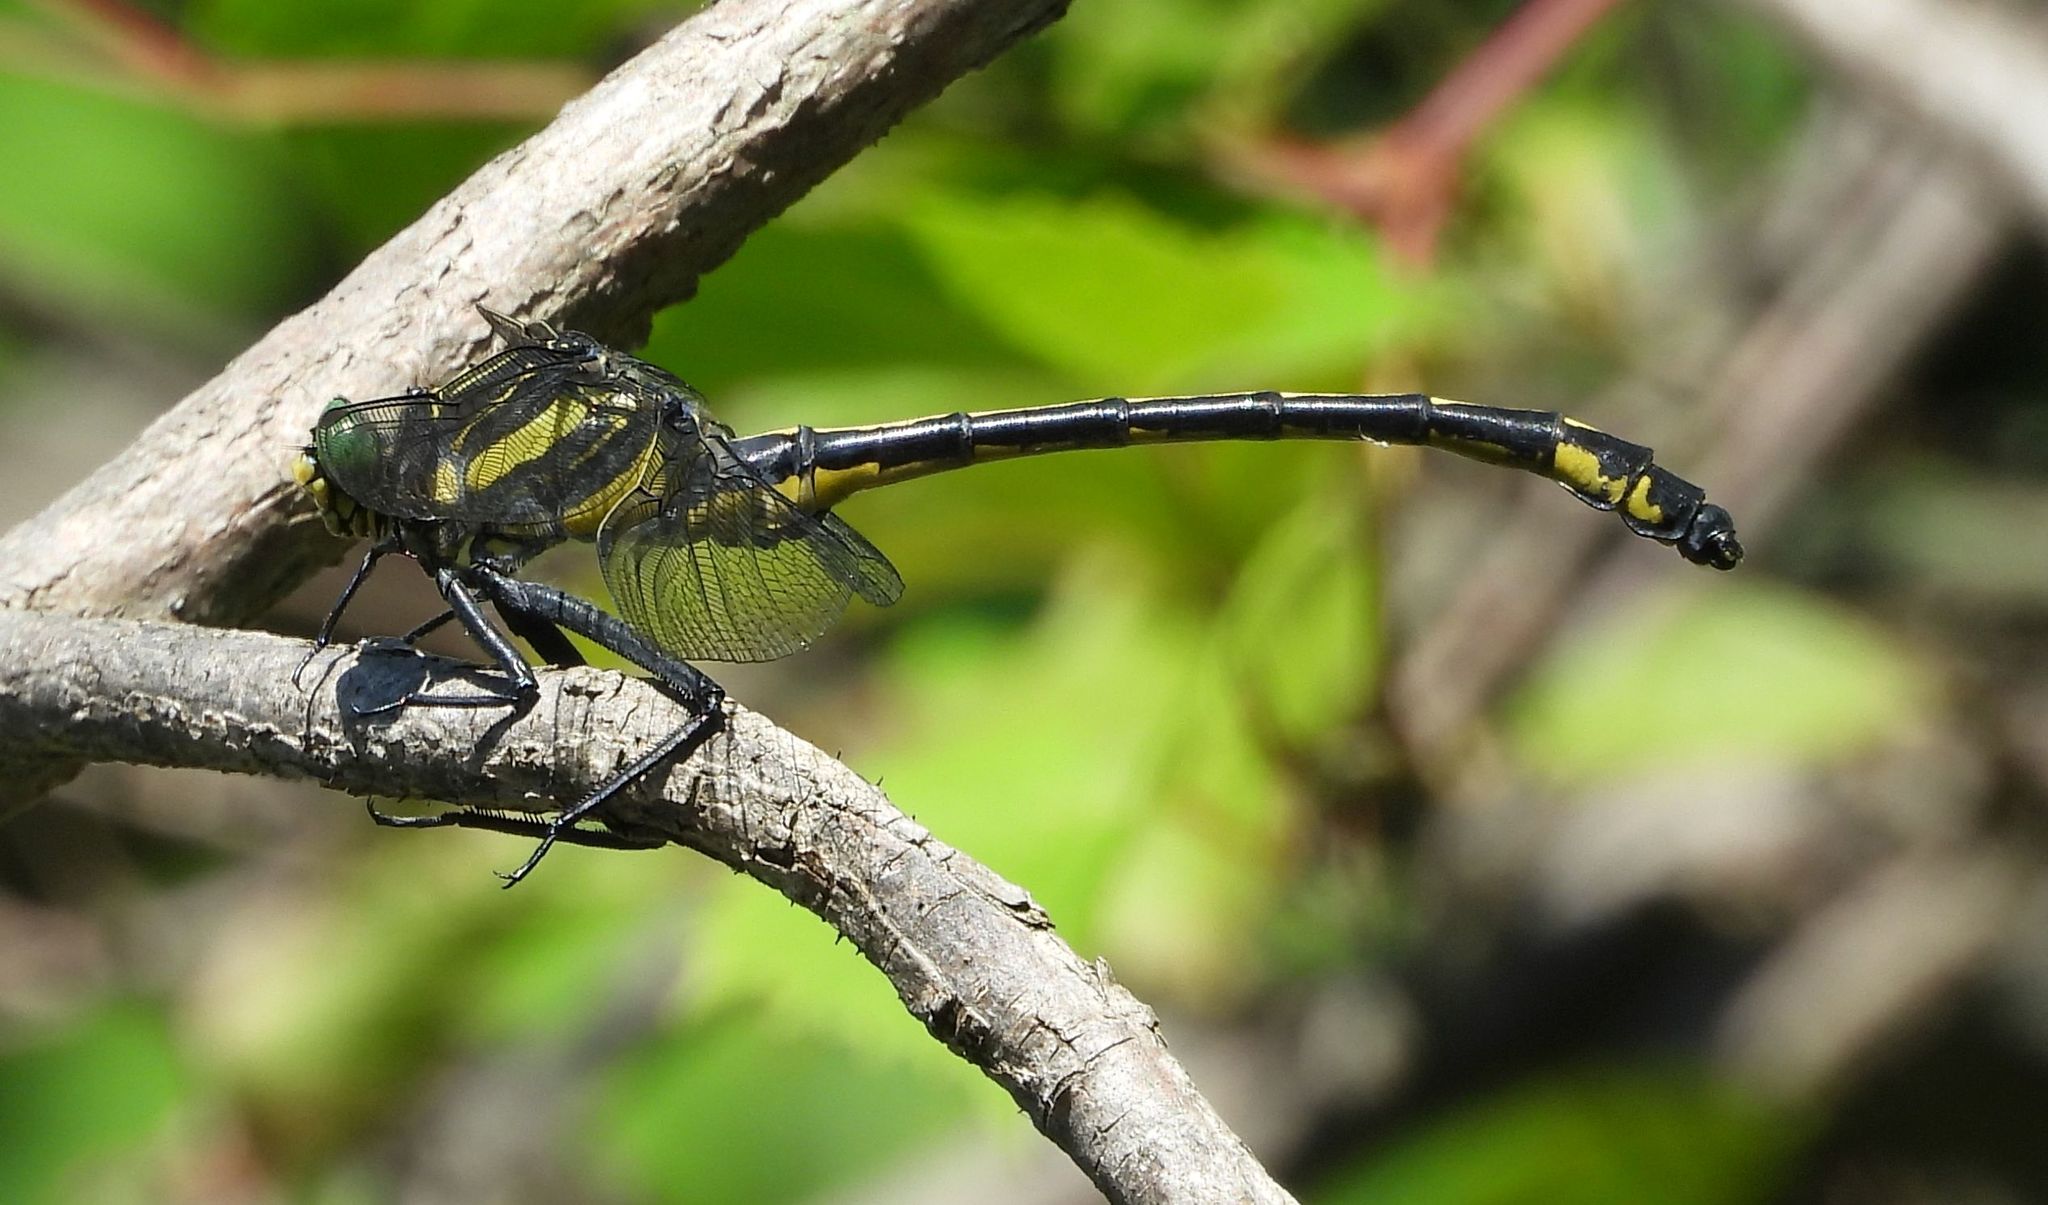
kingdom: Animalia
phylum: Arthropoda
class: Insecta
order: Odonata
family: Gomphidae
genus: Hagenius
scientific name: Hagenius brevistylus
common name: Dragonhunter
